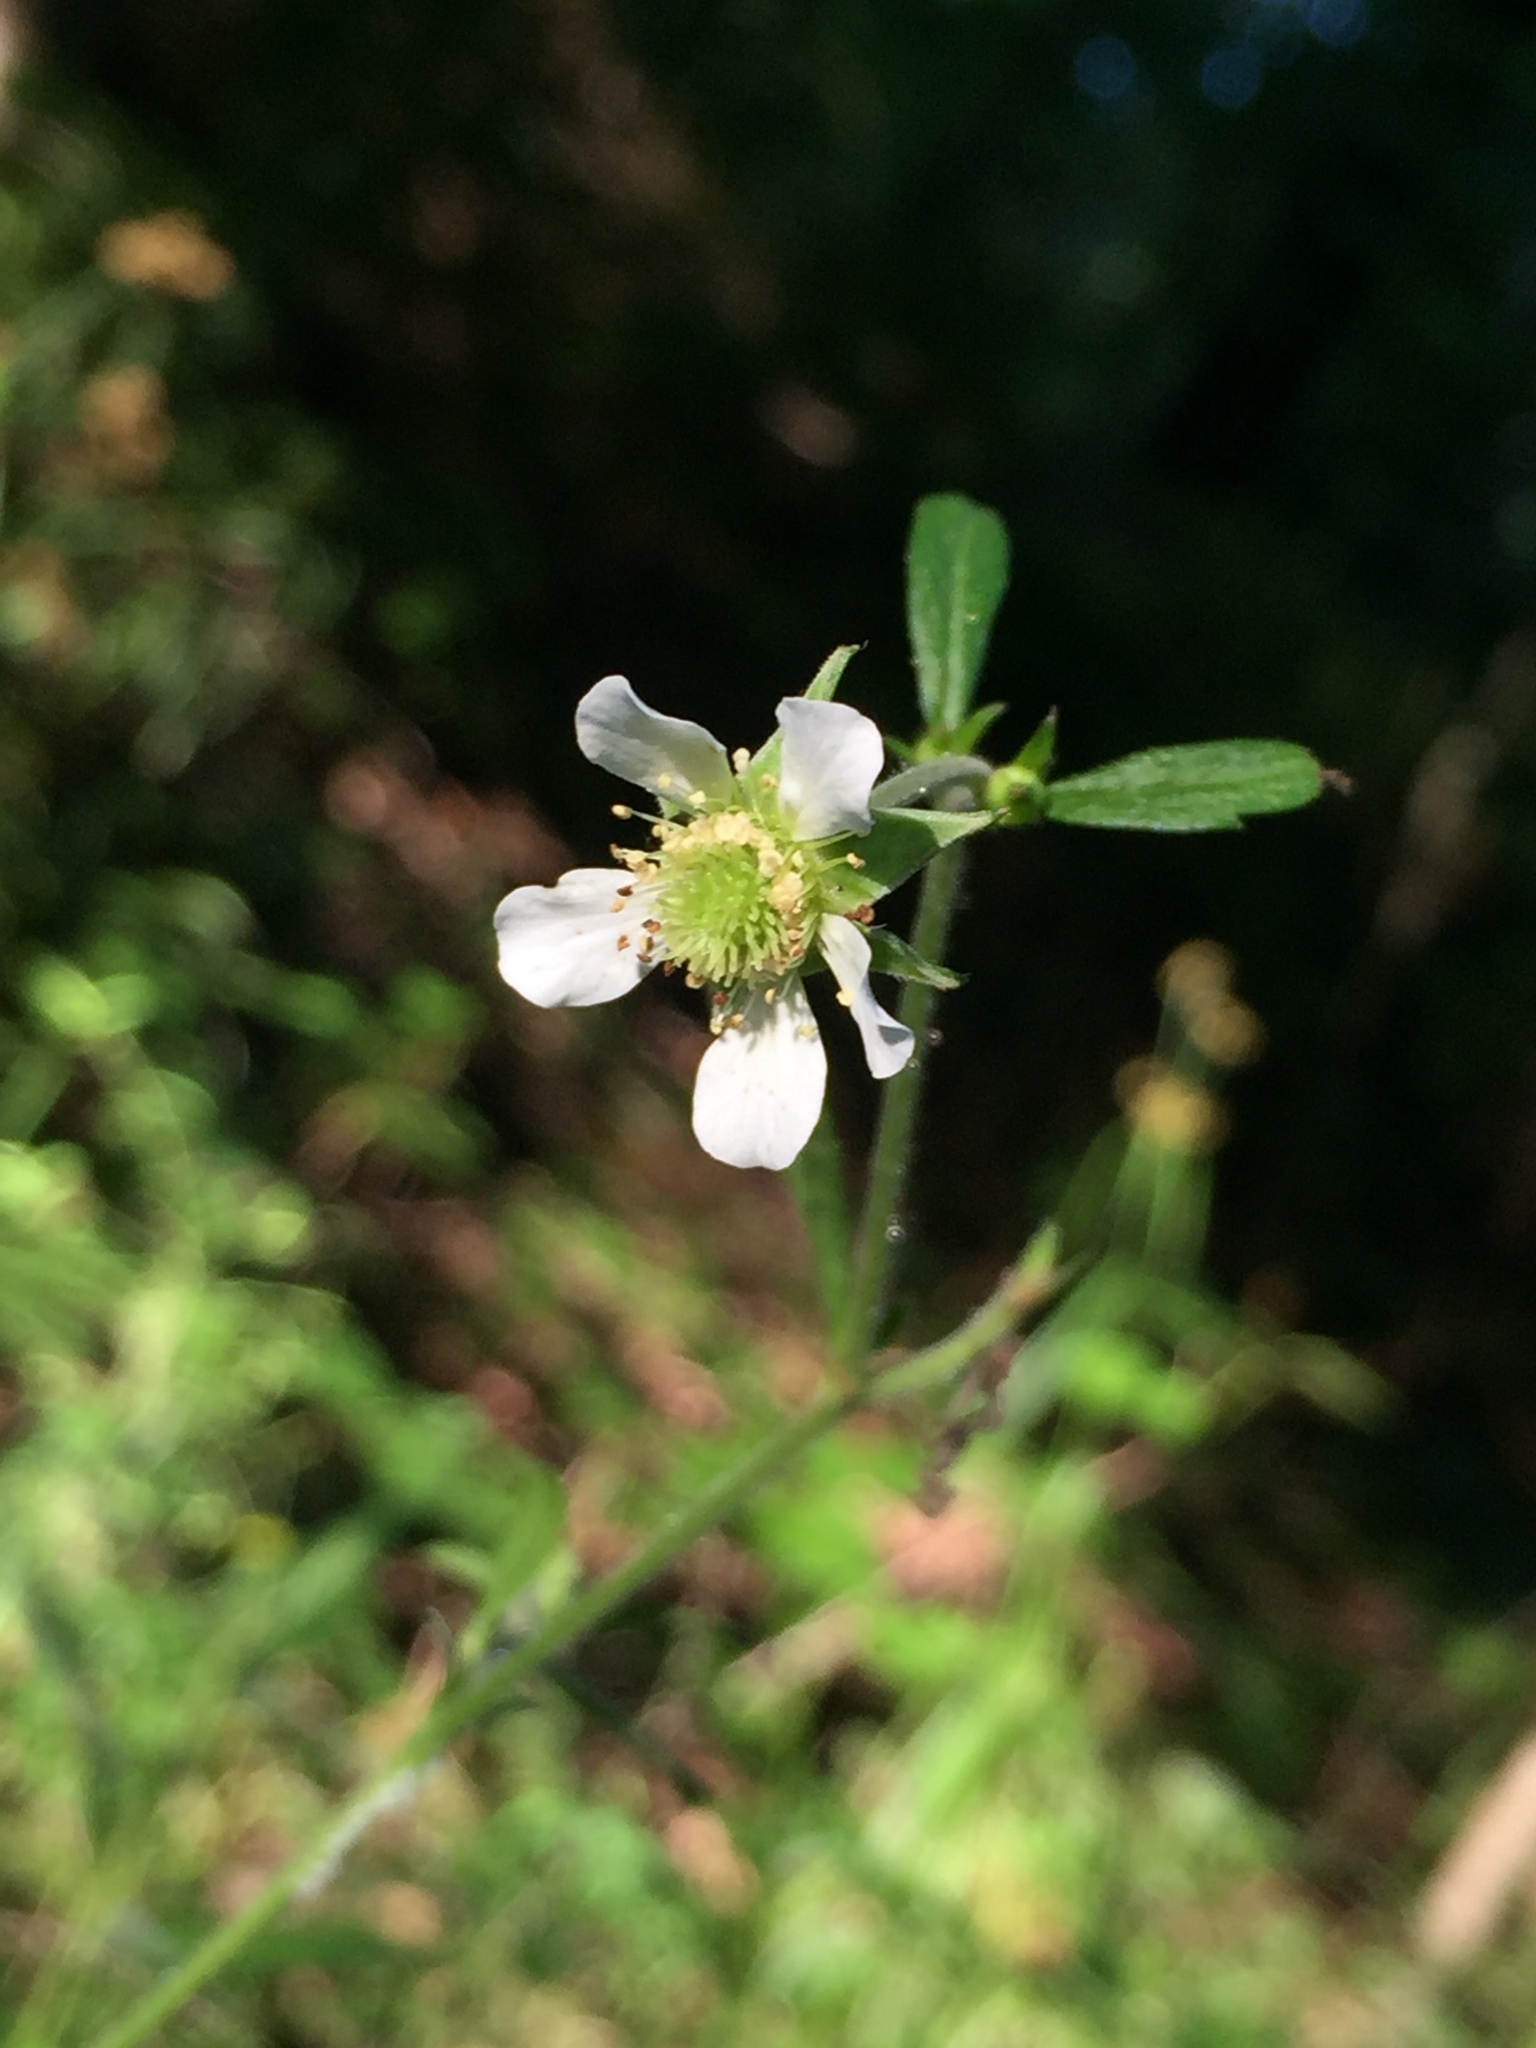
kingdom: Plantae
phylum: Tracheophyta
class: Magnoliopsida
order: Rosales
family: Rosaceae
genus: Geum
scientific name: Geum canadense
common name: White avens
